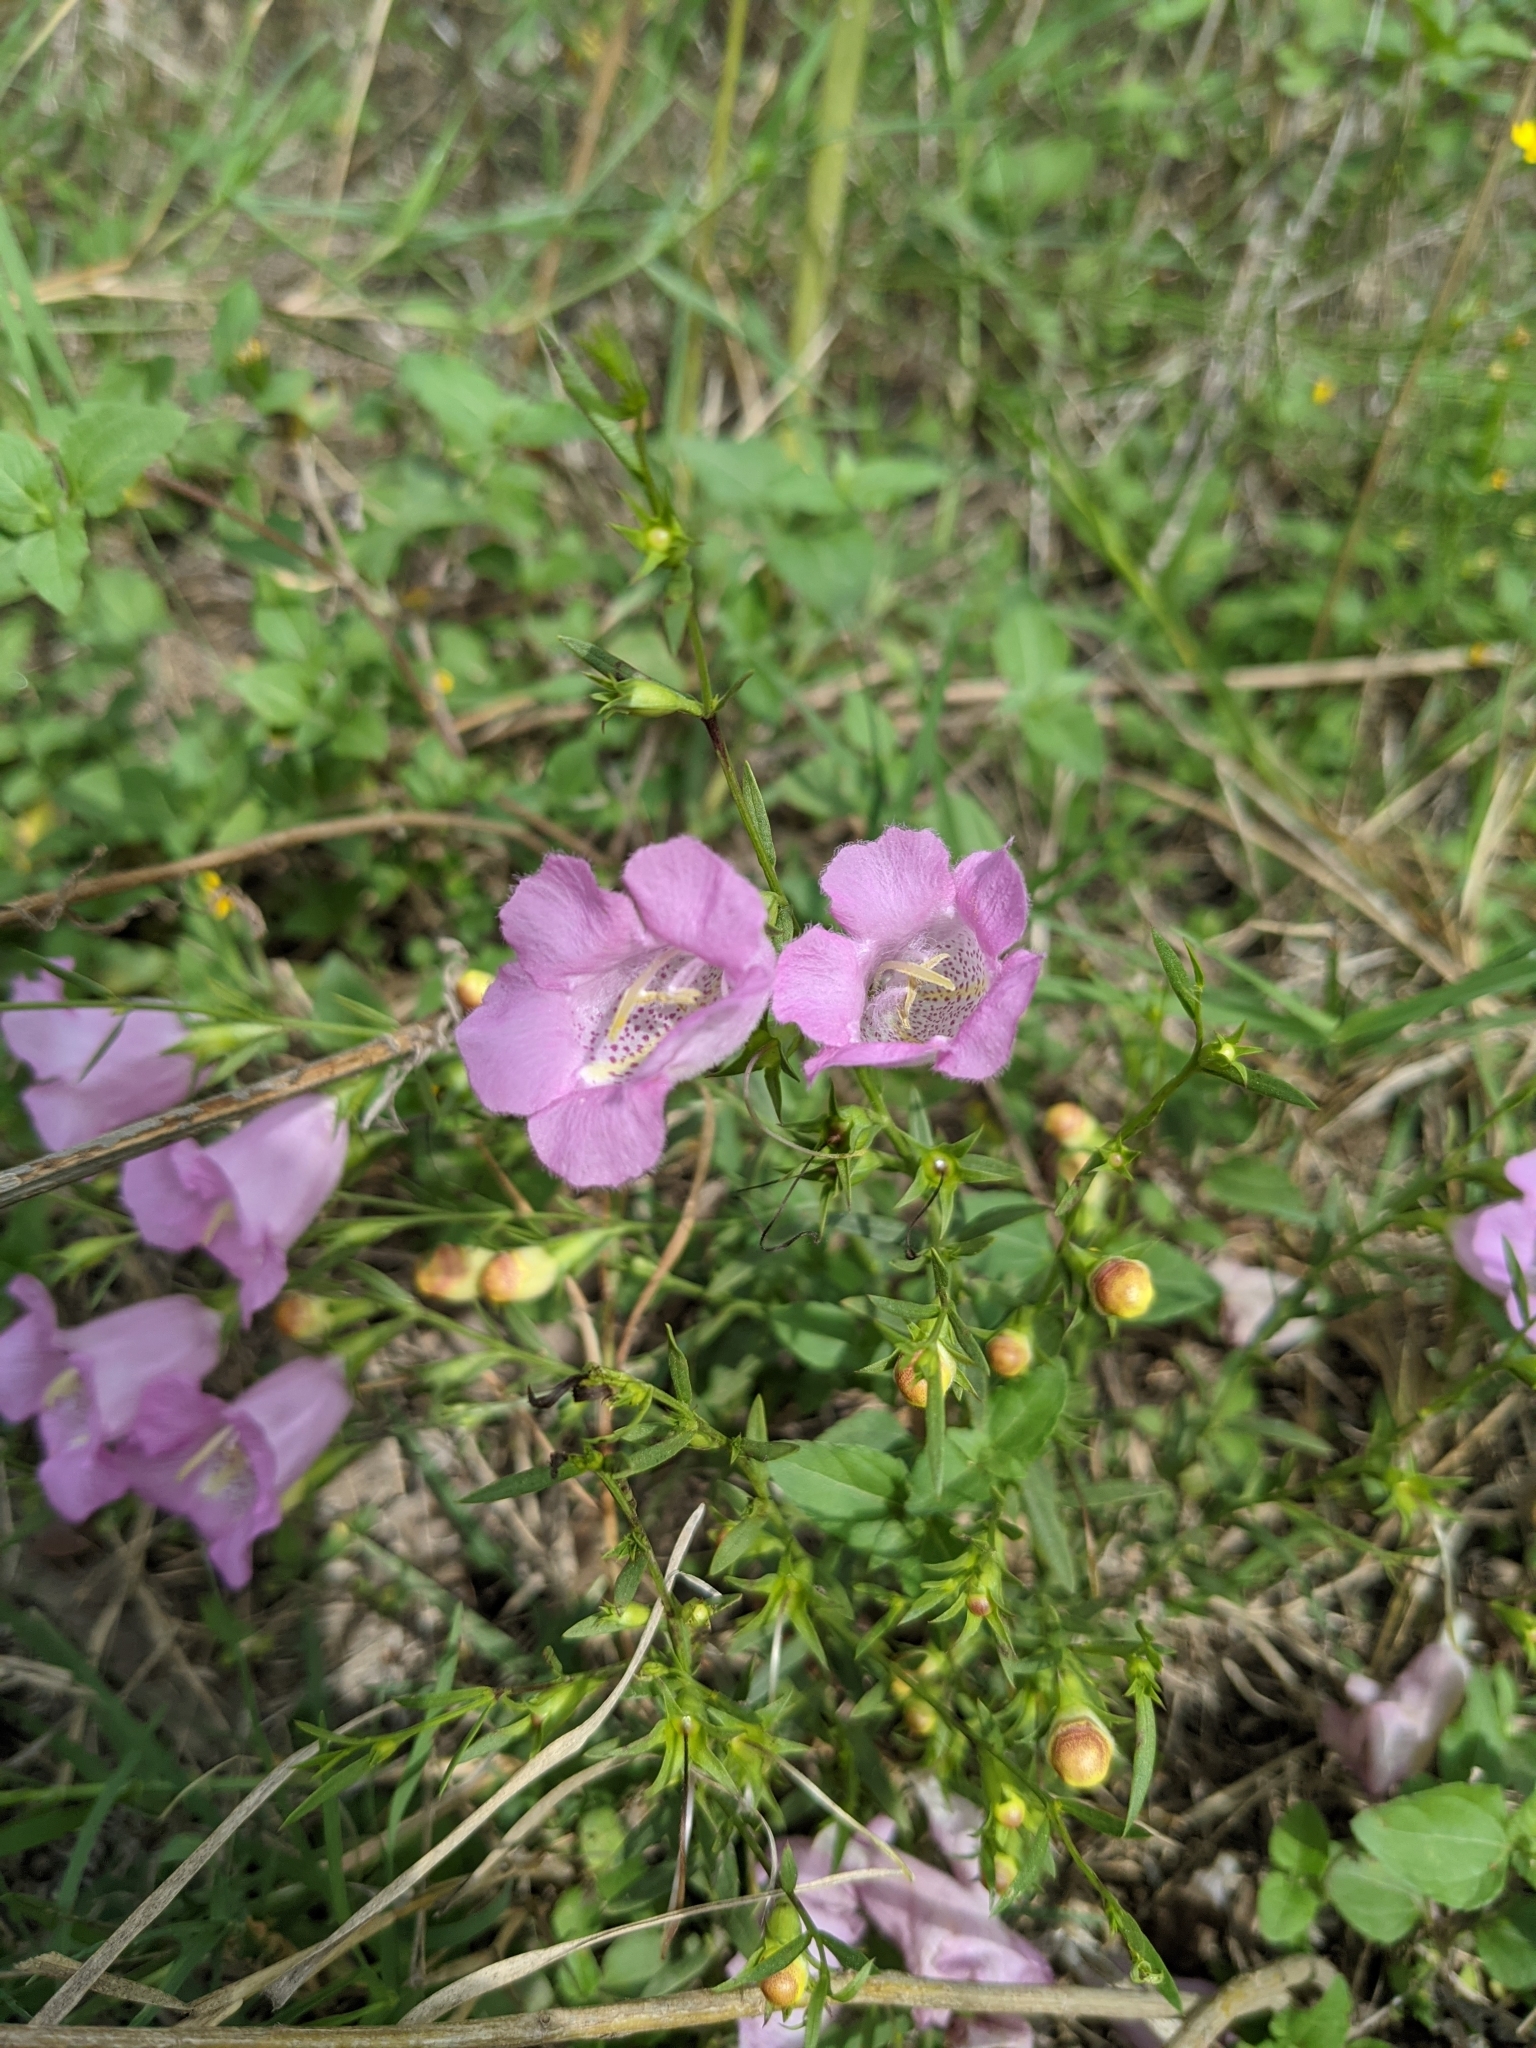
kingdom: Plantae
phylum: Tracheophyta
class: Magnoliopsida
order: Lamiales
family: Orobanchaceae
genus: Agalinis
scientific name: Agalinis heterophylla
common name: Prairie agalinis
